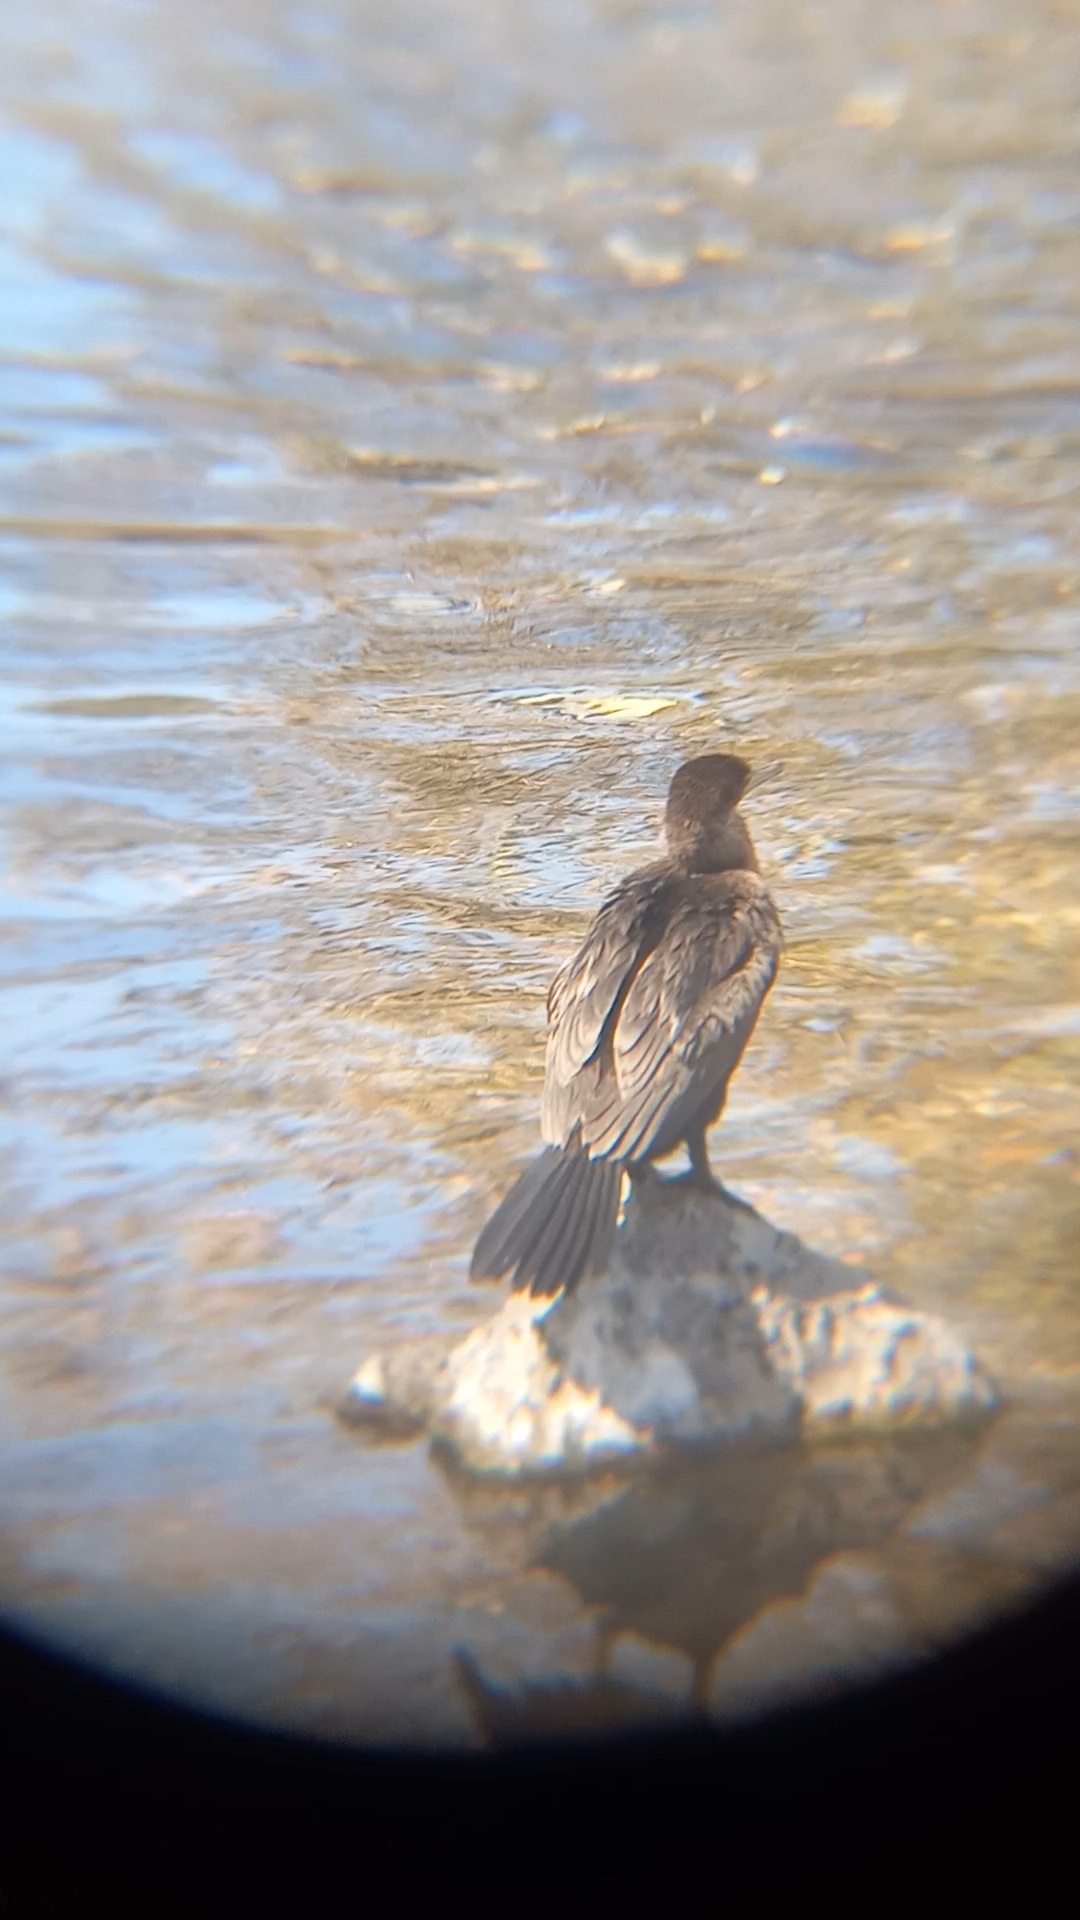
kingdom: Animalia
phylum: Chordata
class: Aves
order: Suliformes
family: Phalacrocoracidae
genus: Phalacrocorax
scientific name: Phalacrocorax brasilianus
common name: Neotropic cormorant
